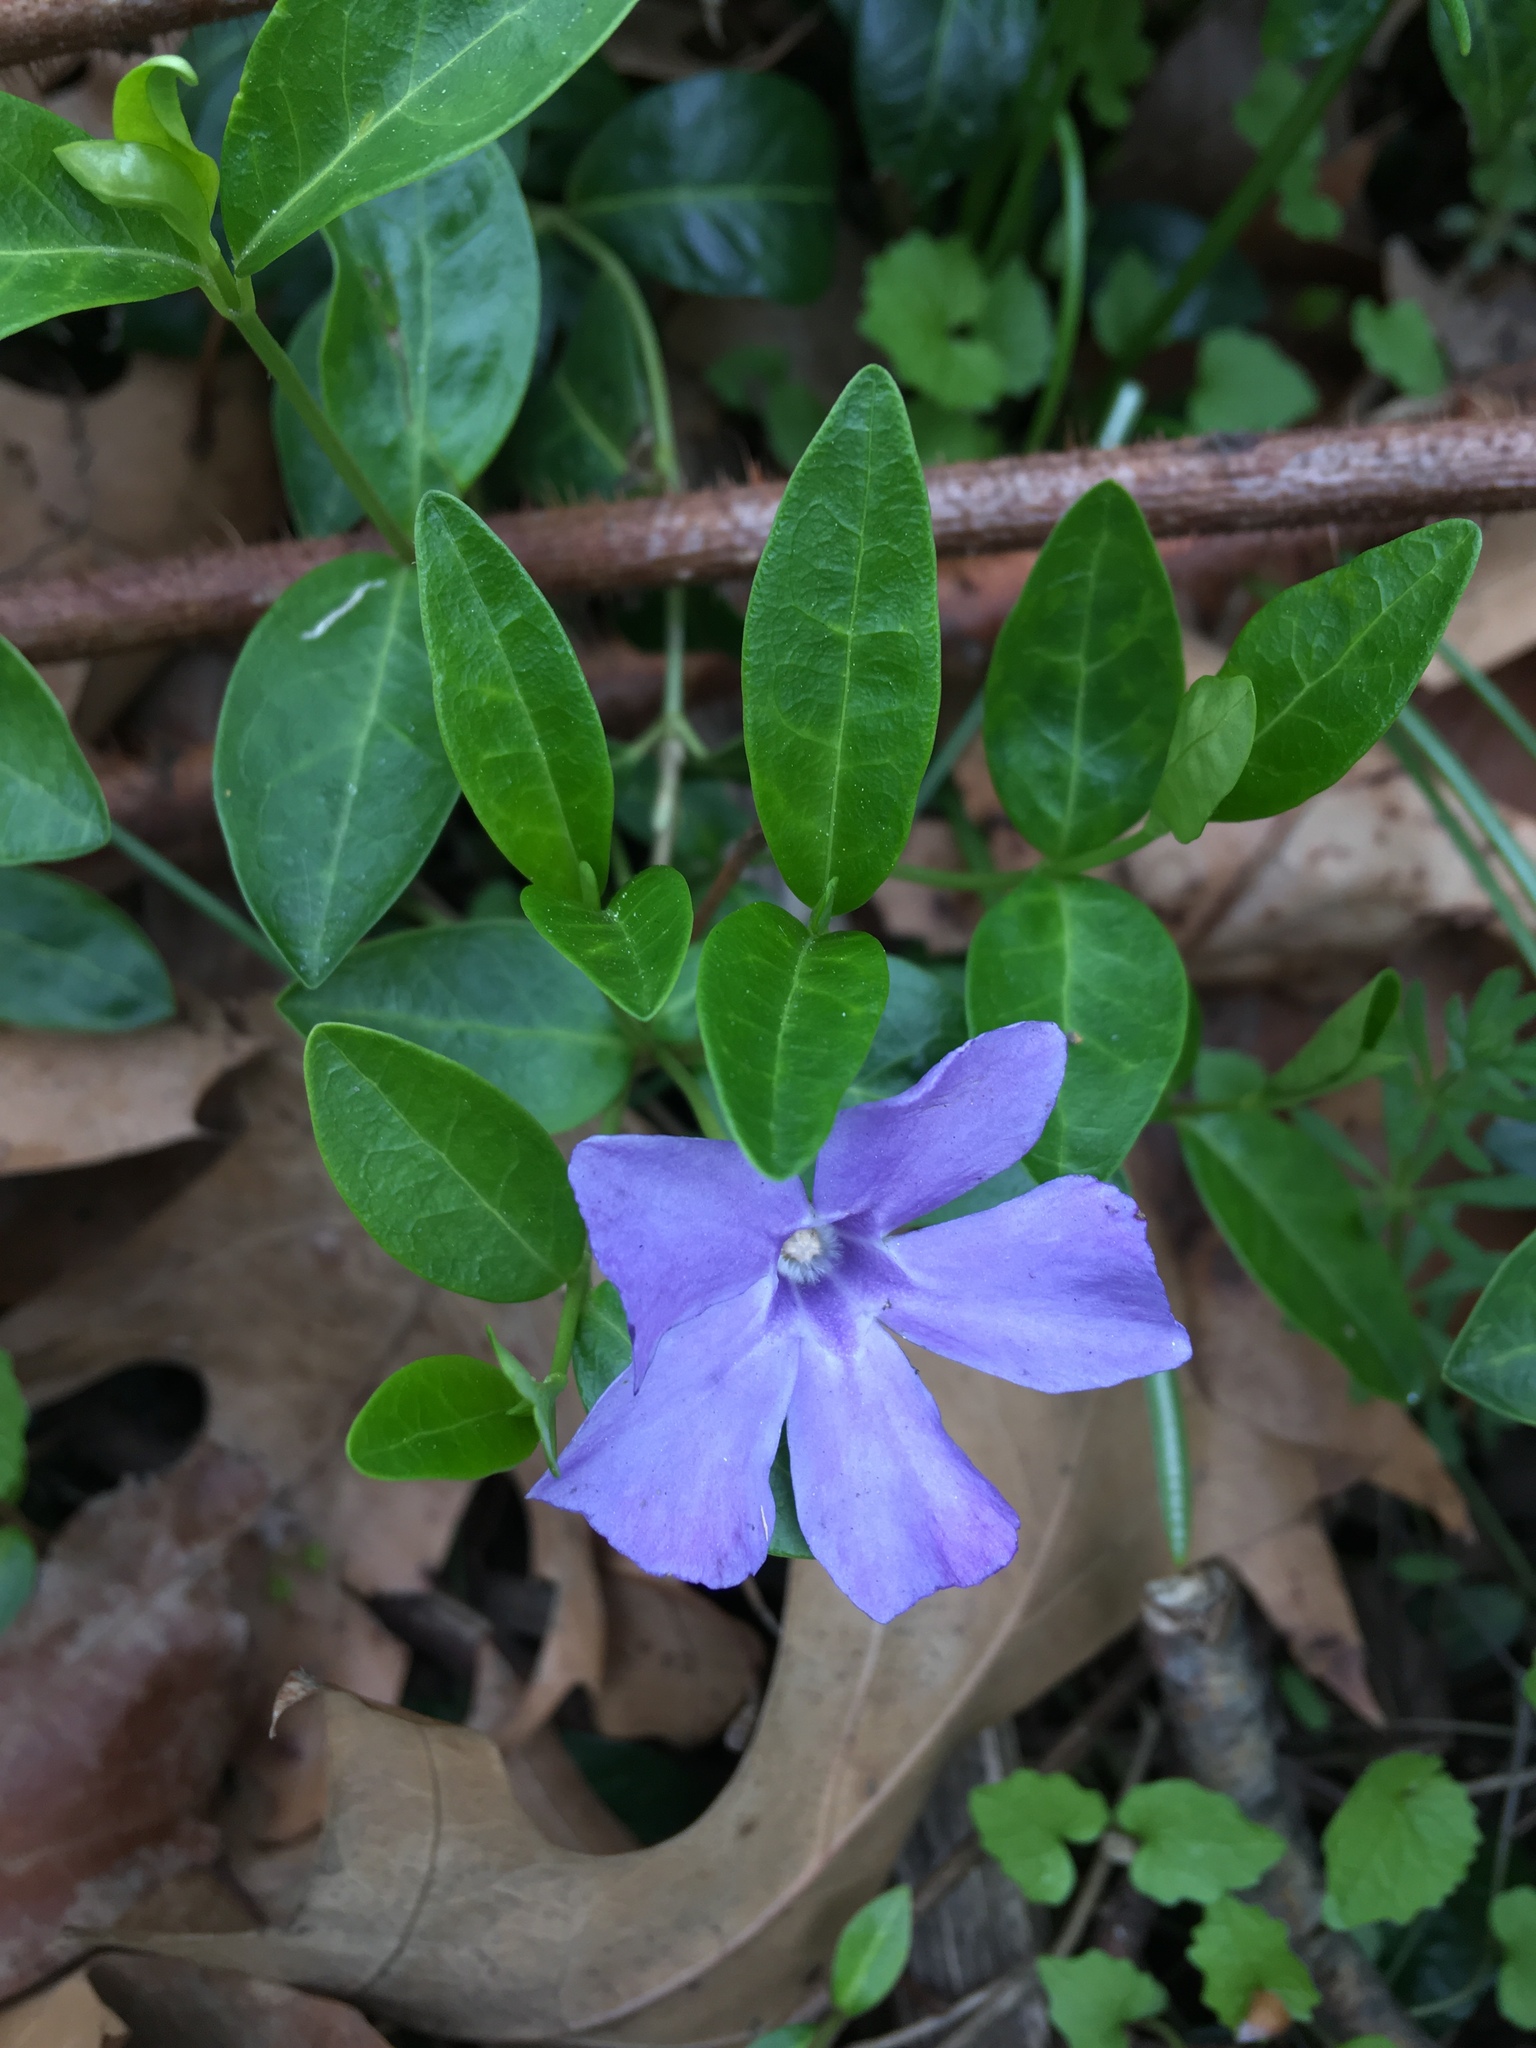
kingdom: Plantae
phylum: Tracheophyta
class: Magnoliopsida
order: Gentianales
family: Apocynaceae
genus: Vinca
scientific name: Vinca minor
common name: Lesser periwinkle
